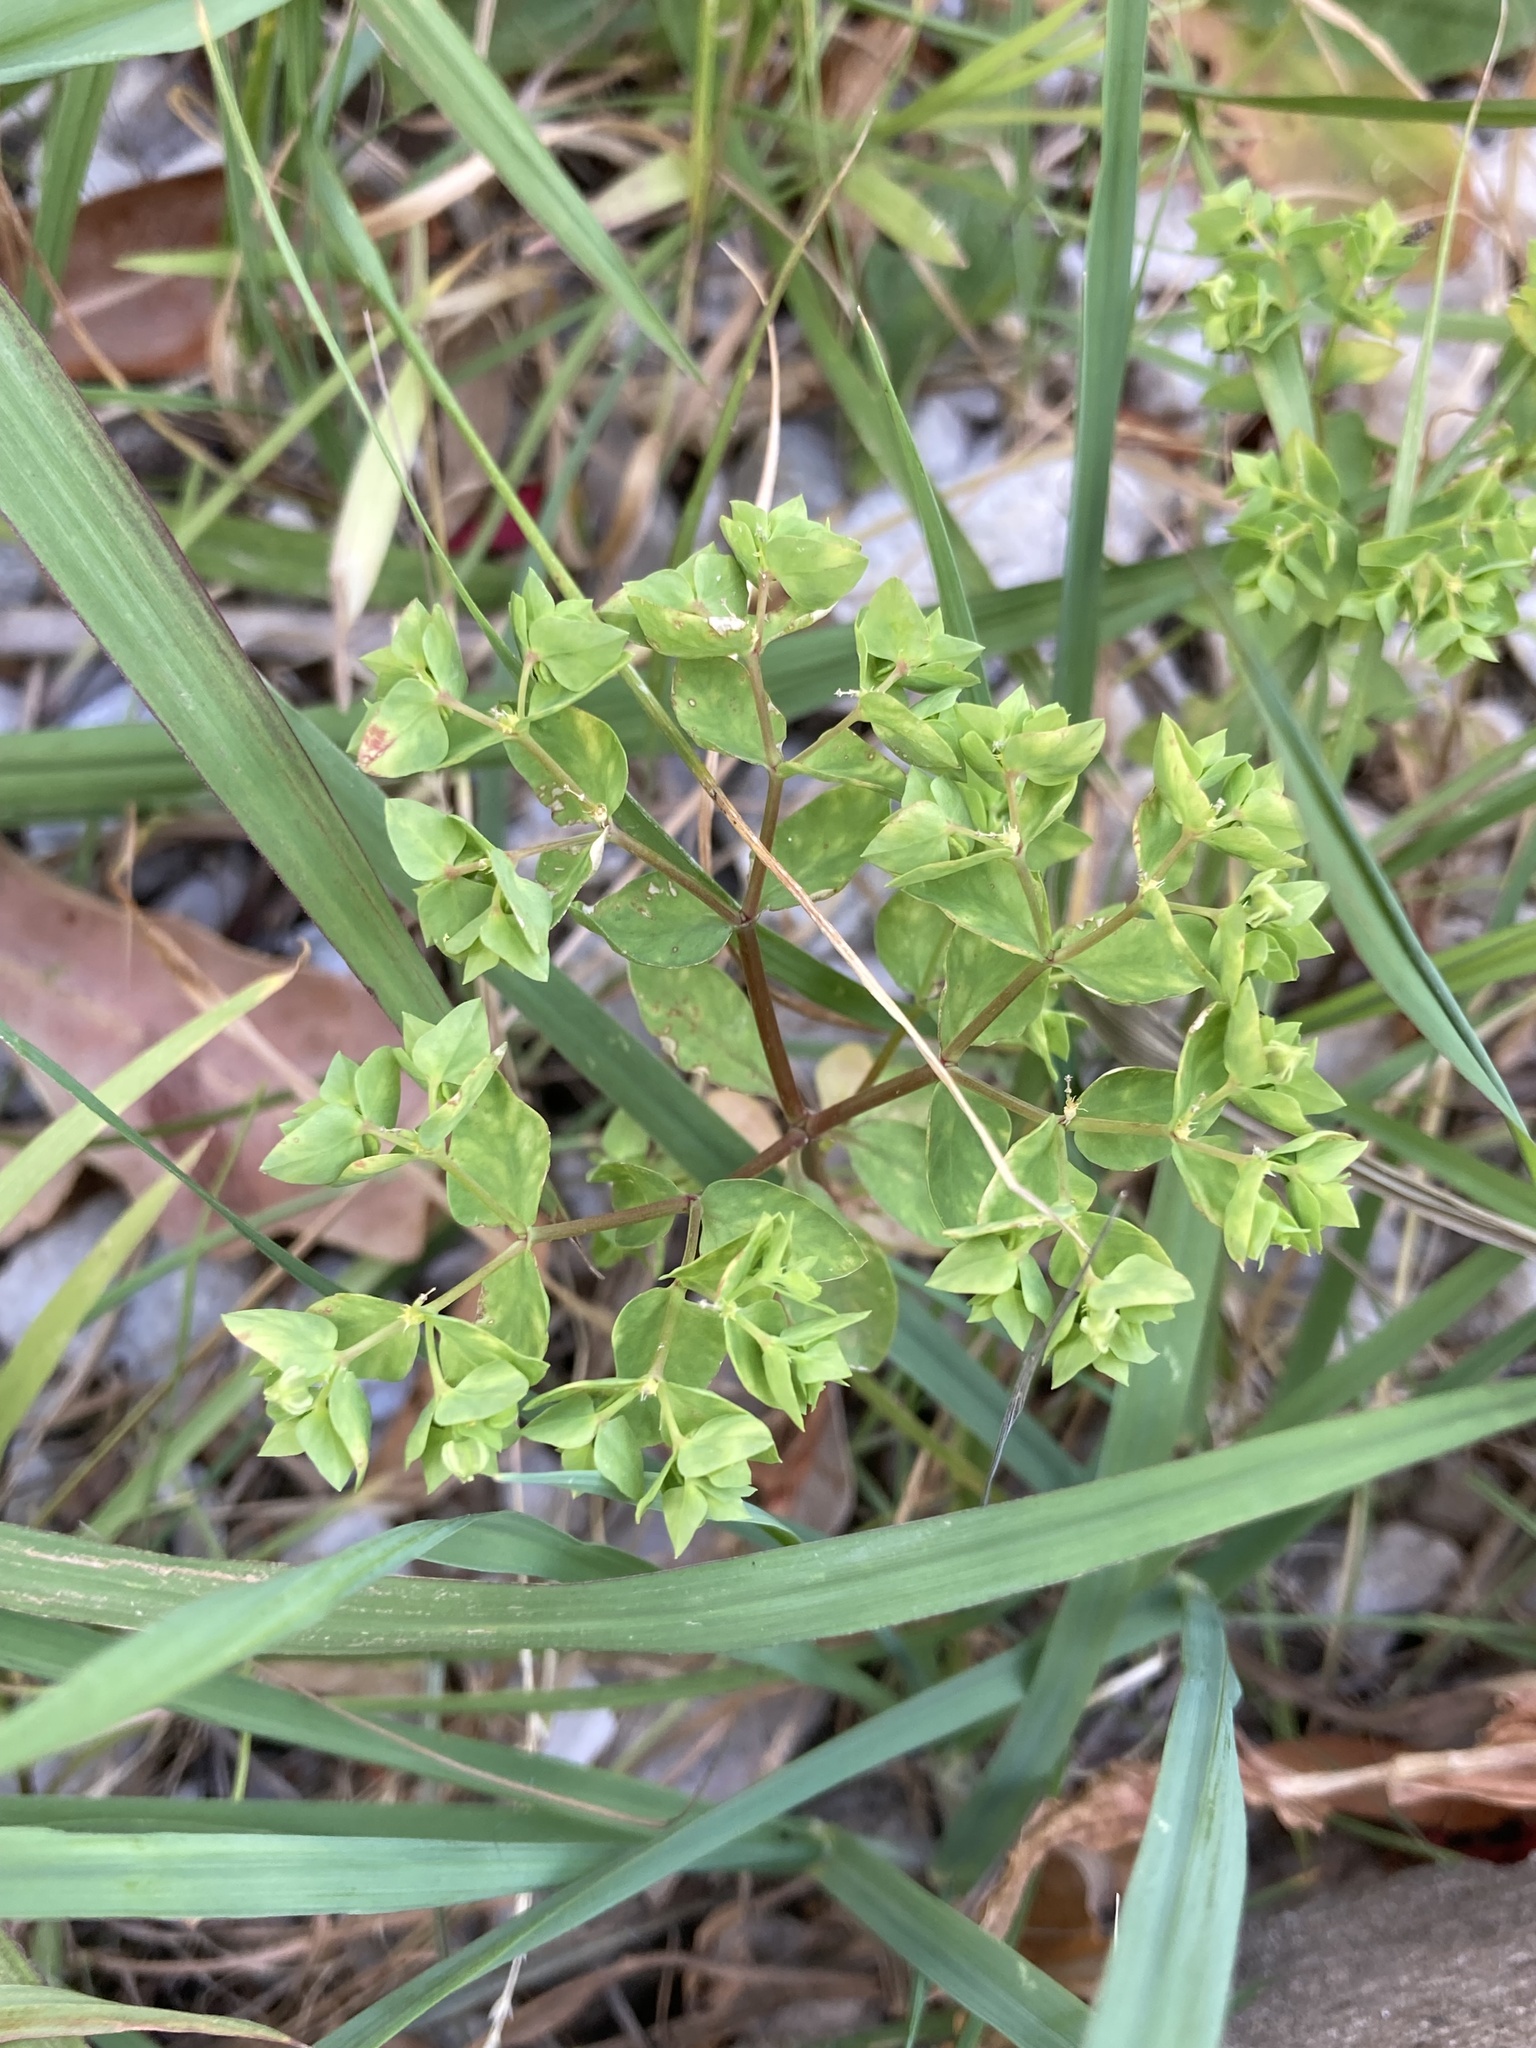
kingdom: Plantae
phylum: Tracheophyta
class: Magnoliopsida
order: Malpighiales
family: Euphorbiaceae
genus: Euphorbia
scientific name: Euphorbia peplus
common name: Petty spurge
